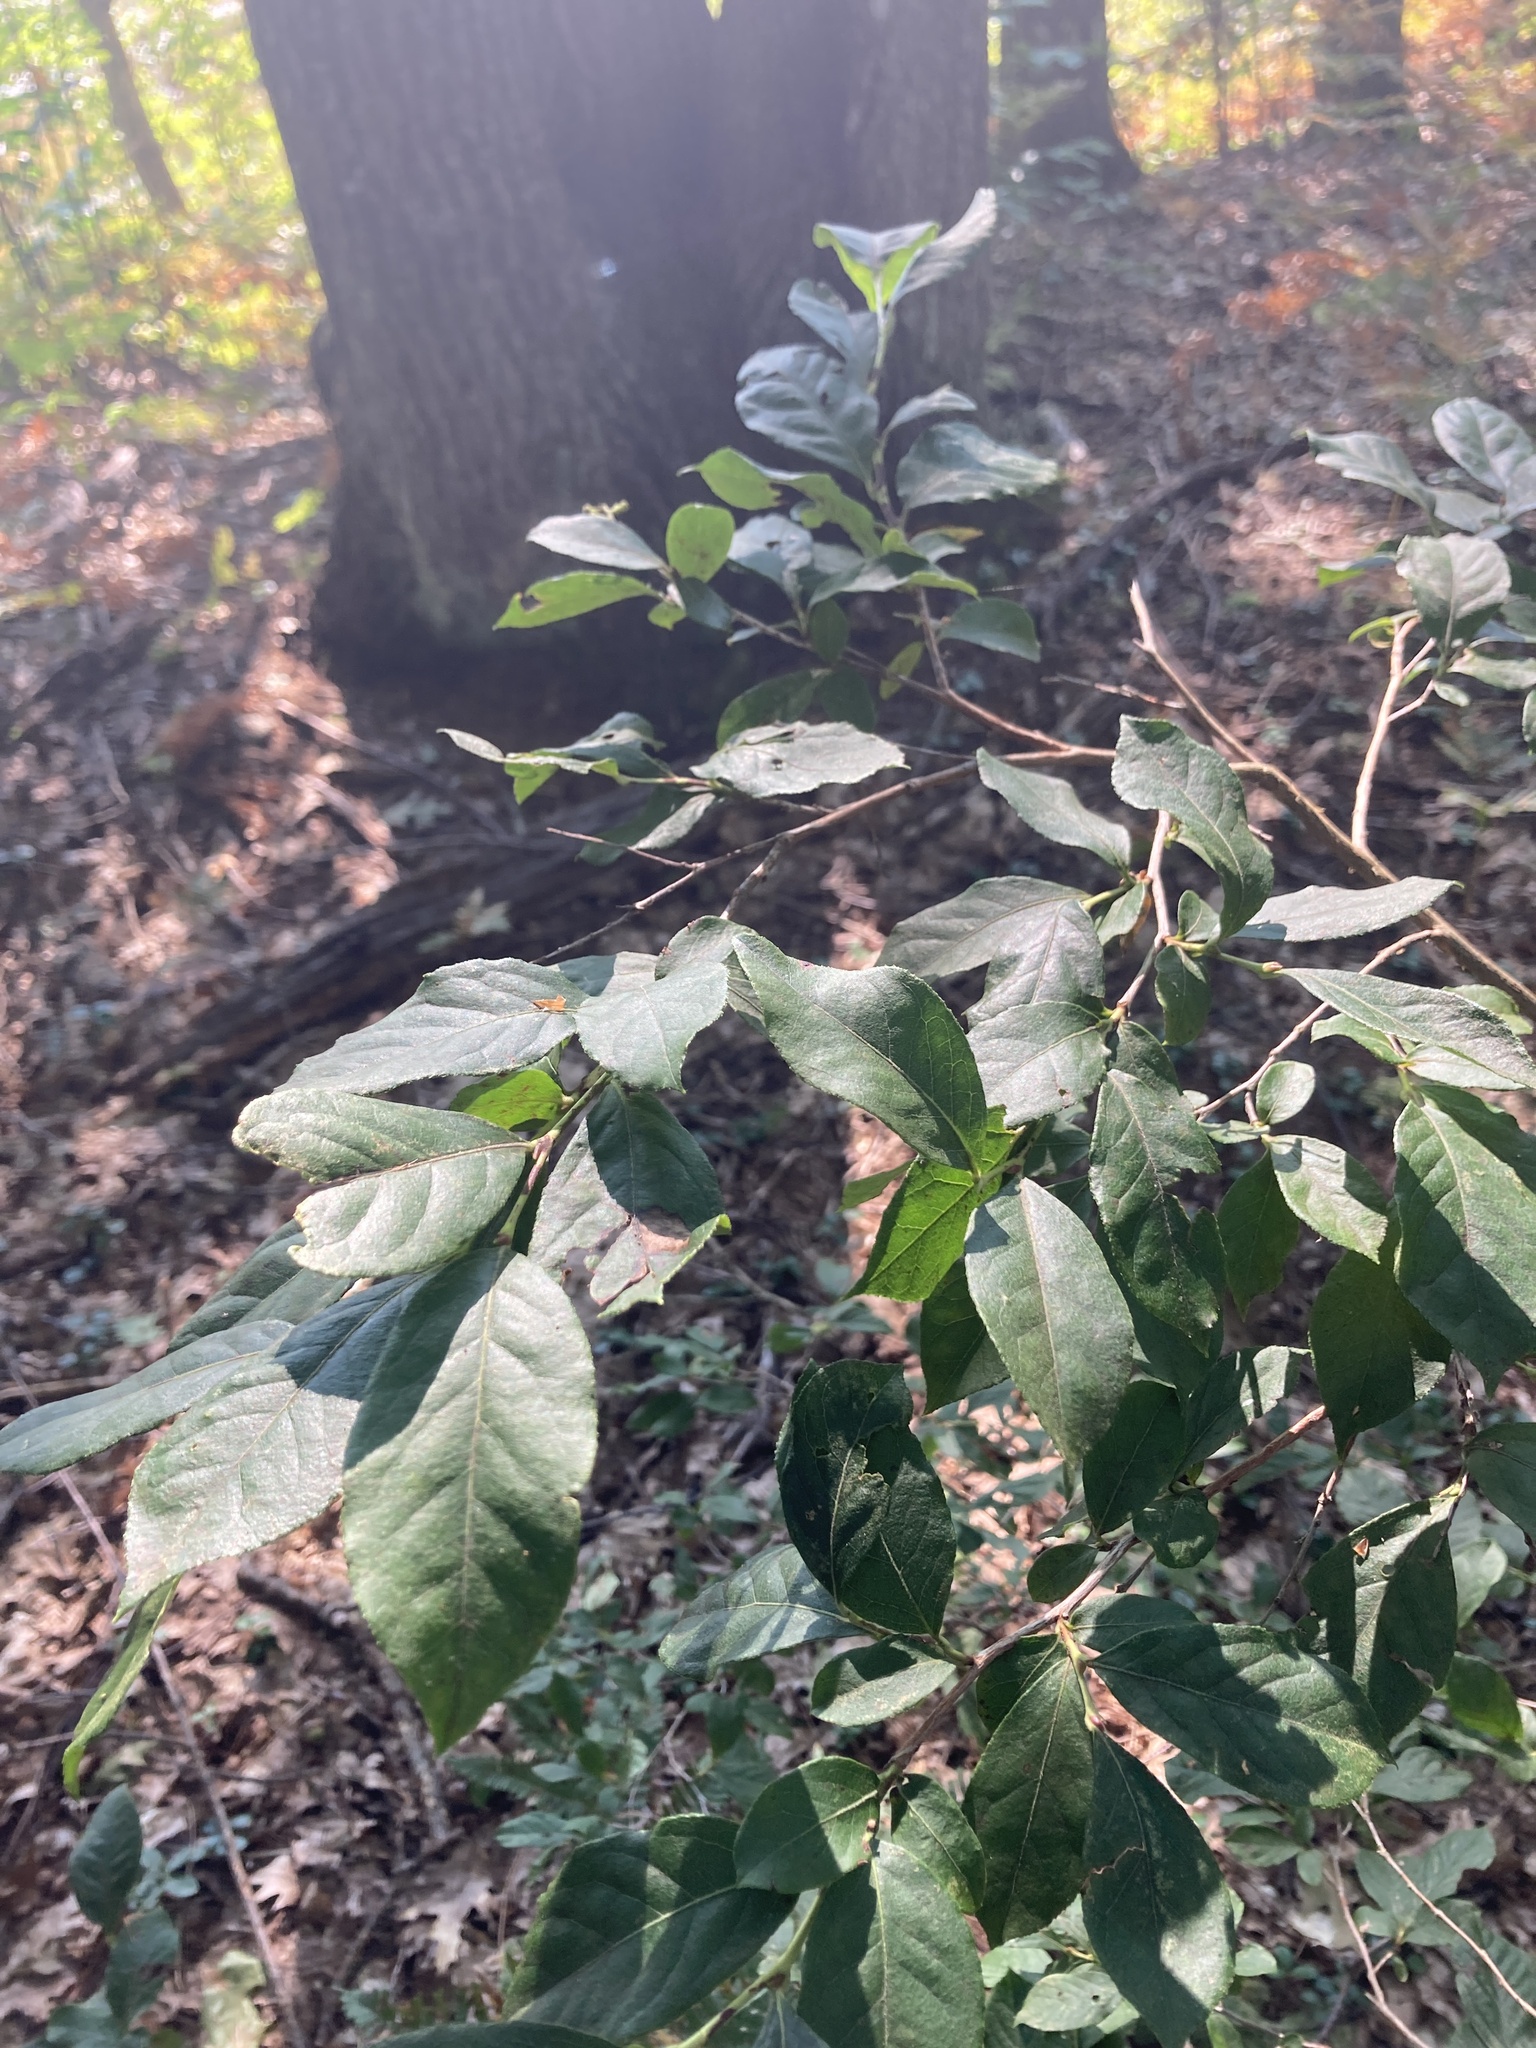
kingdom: Plantae
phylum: Tracheophyta
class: Magnoliopsida
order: Ericales
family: Ericaceae
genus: Lyonia
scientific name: Lyonia ligustrina
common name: Maleberry
